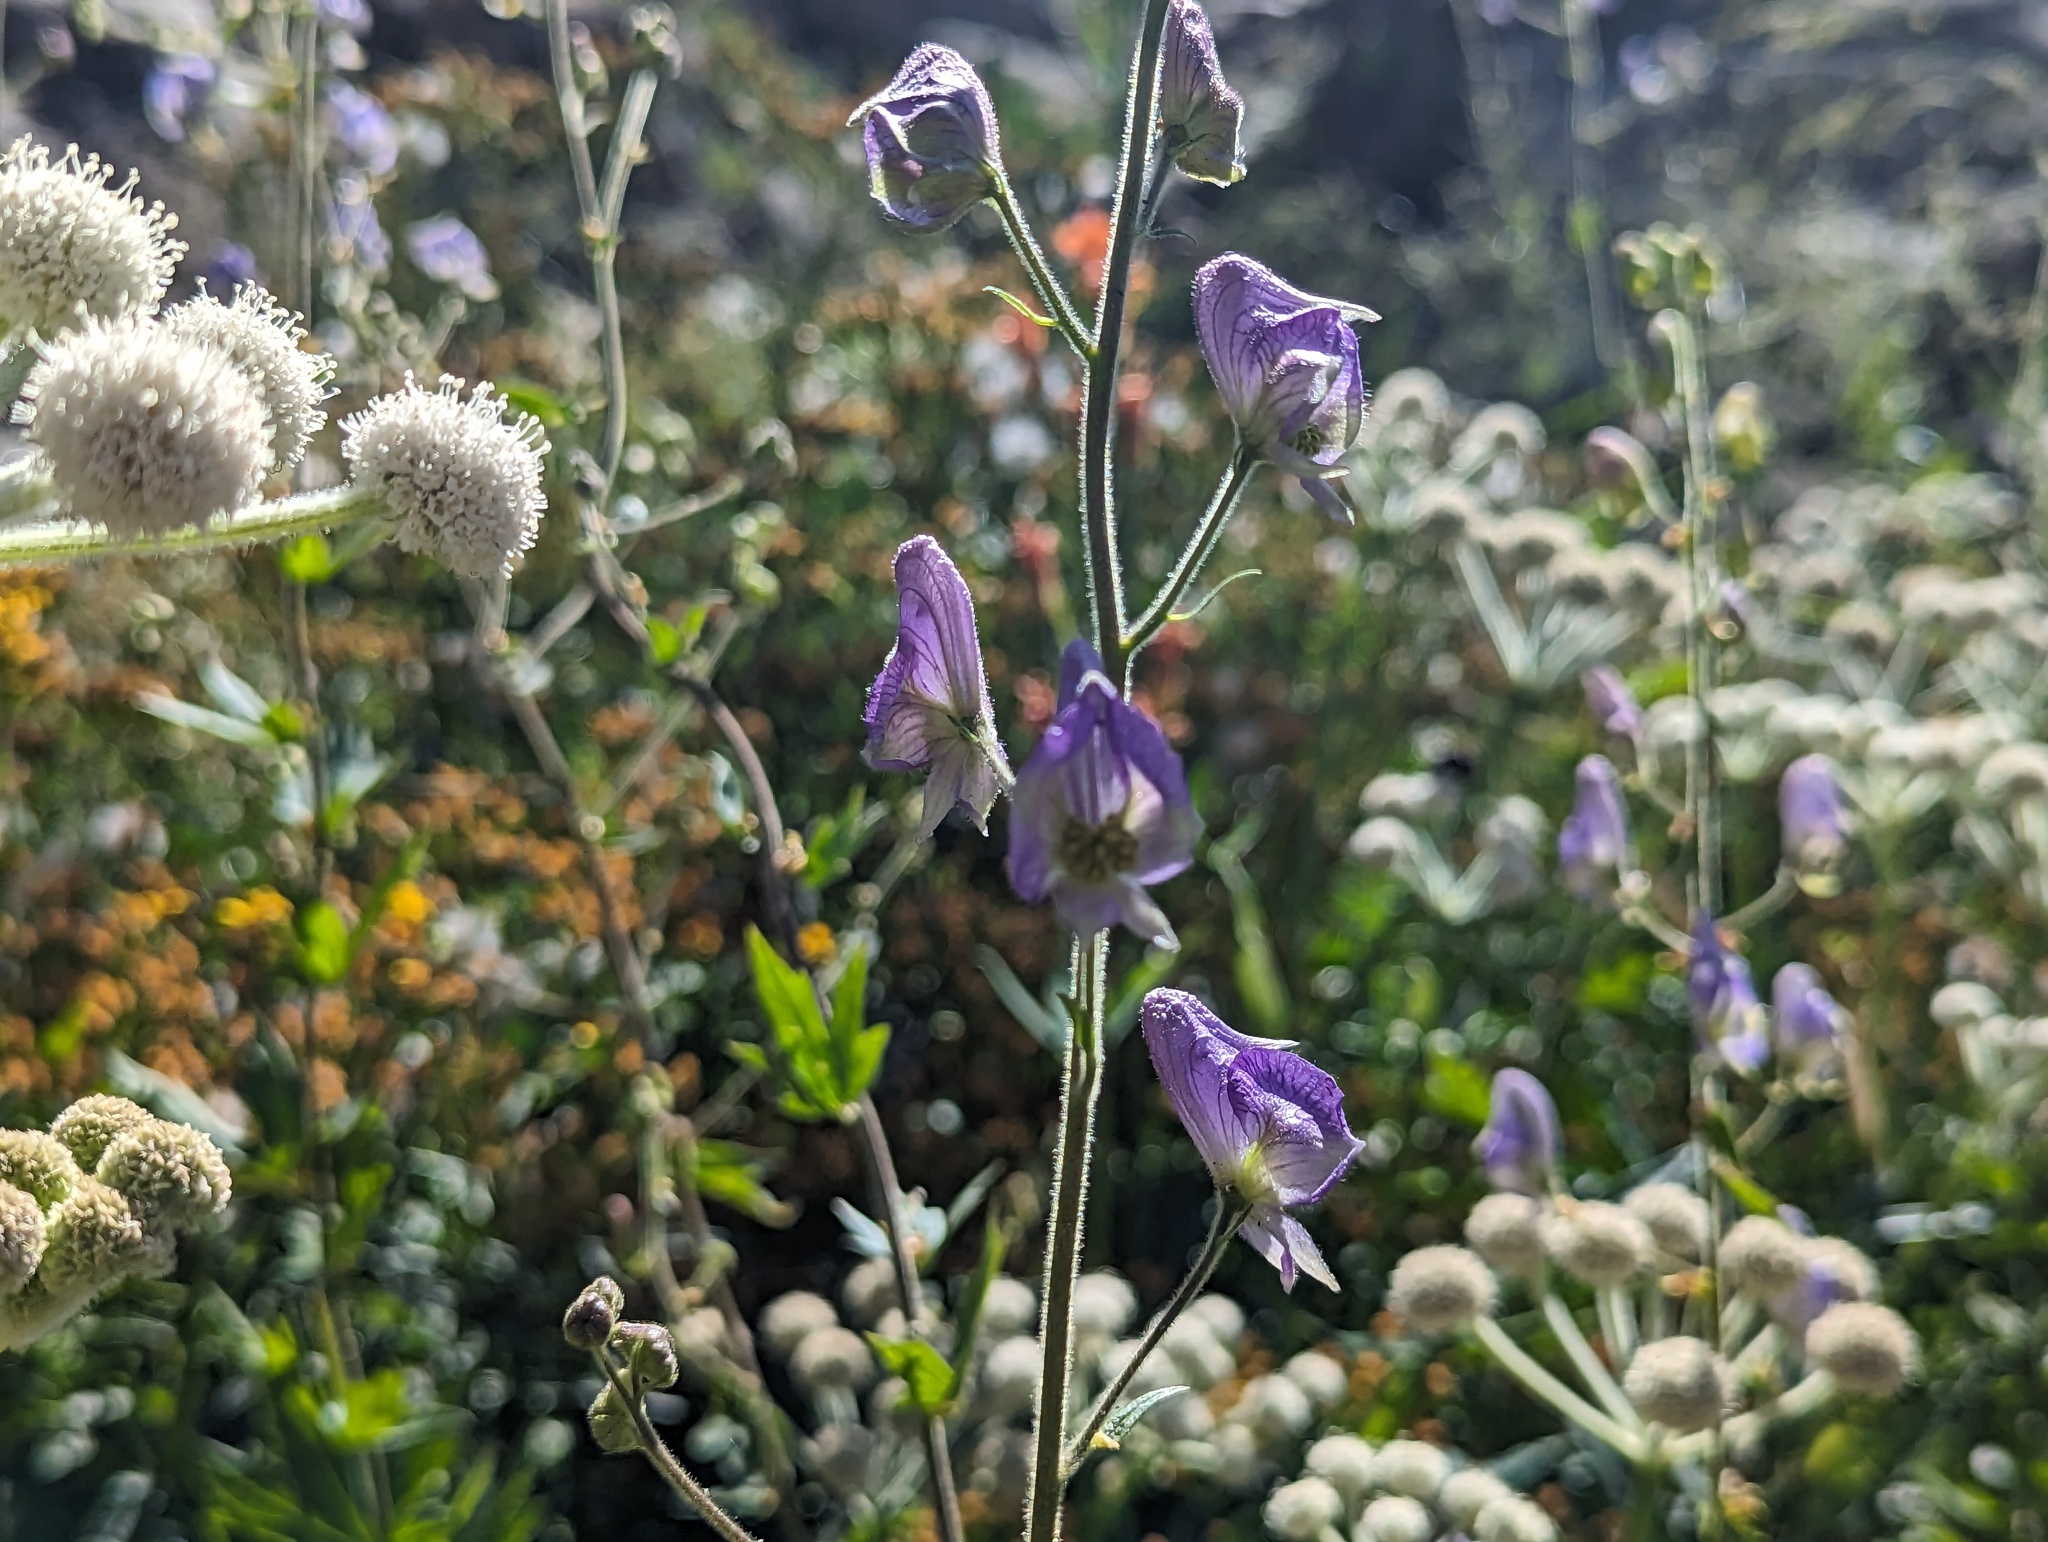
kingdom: Plantae
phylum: Tracheophyta
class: Magnoliopsida
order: Ranunculales
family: Ranunculaceae
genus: Aconitum
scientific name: Aconitum columbianum
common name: Columbia aconite
